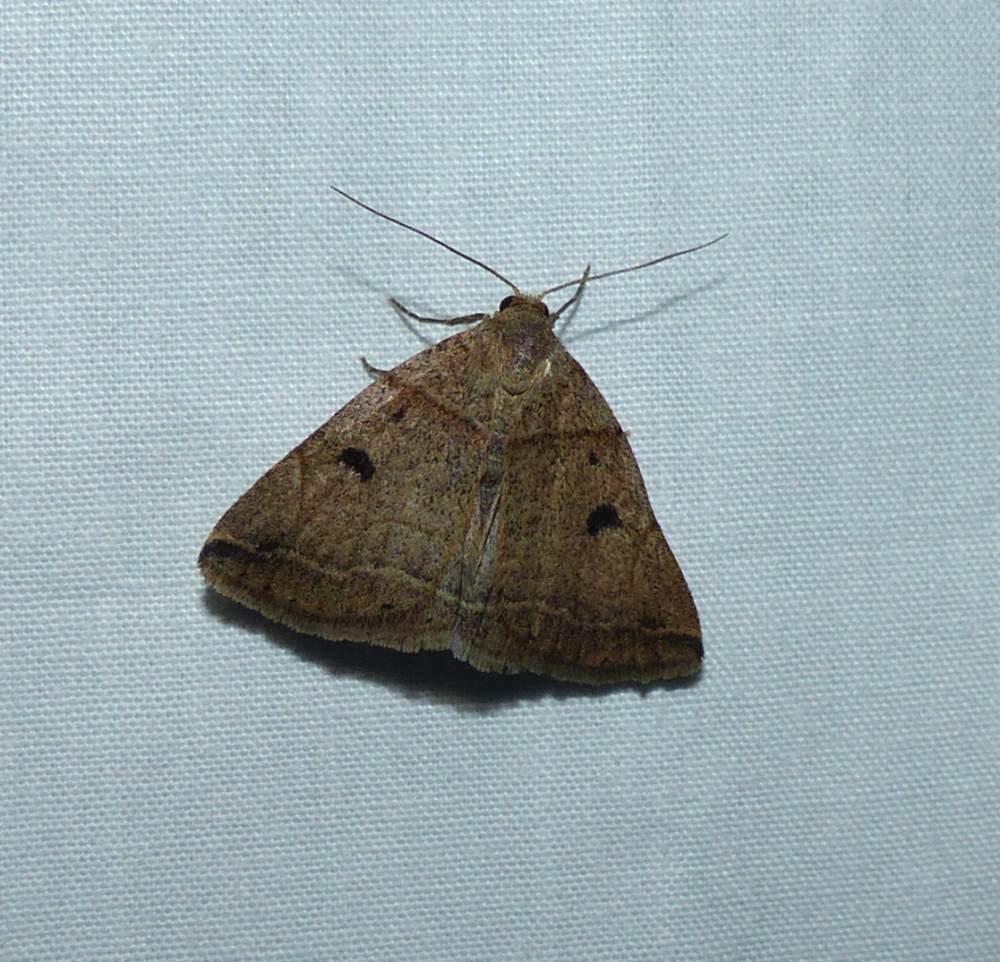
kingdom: Animalia
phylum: Arthropoda
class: Insecta
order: Lepidoptera
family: Erebidae
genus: Zanclognatha
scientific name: Zanclognatha laevigata
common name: Variable fan-foot
